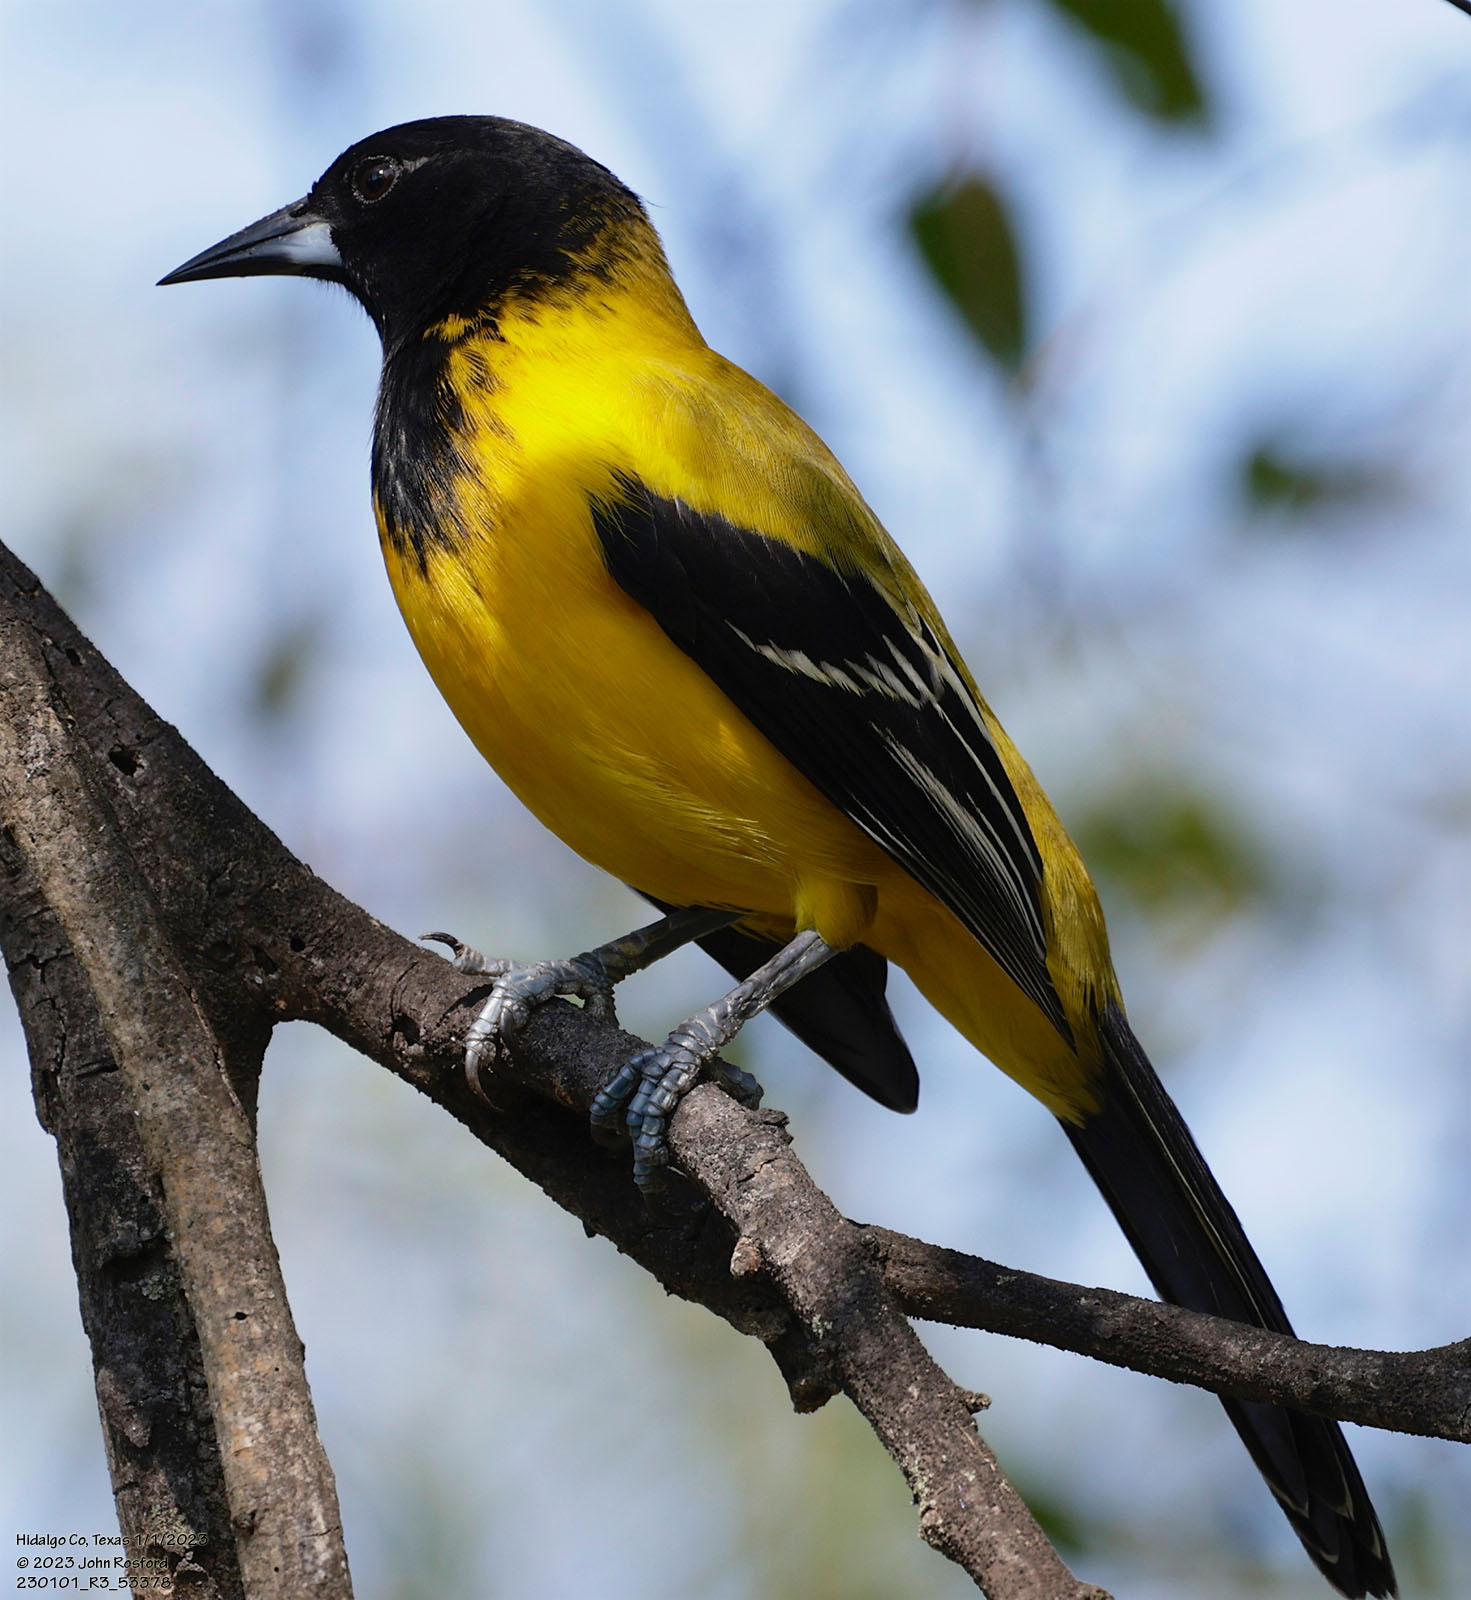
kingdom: Animalia
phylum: Chordata
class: Aves
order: Passeriformes
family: Icteridae
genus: Icterus
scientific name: Icterus graduacauda
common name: Audubon's oriole
